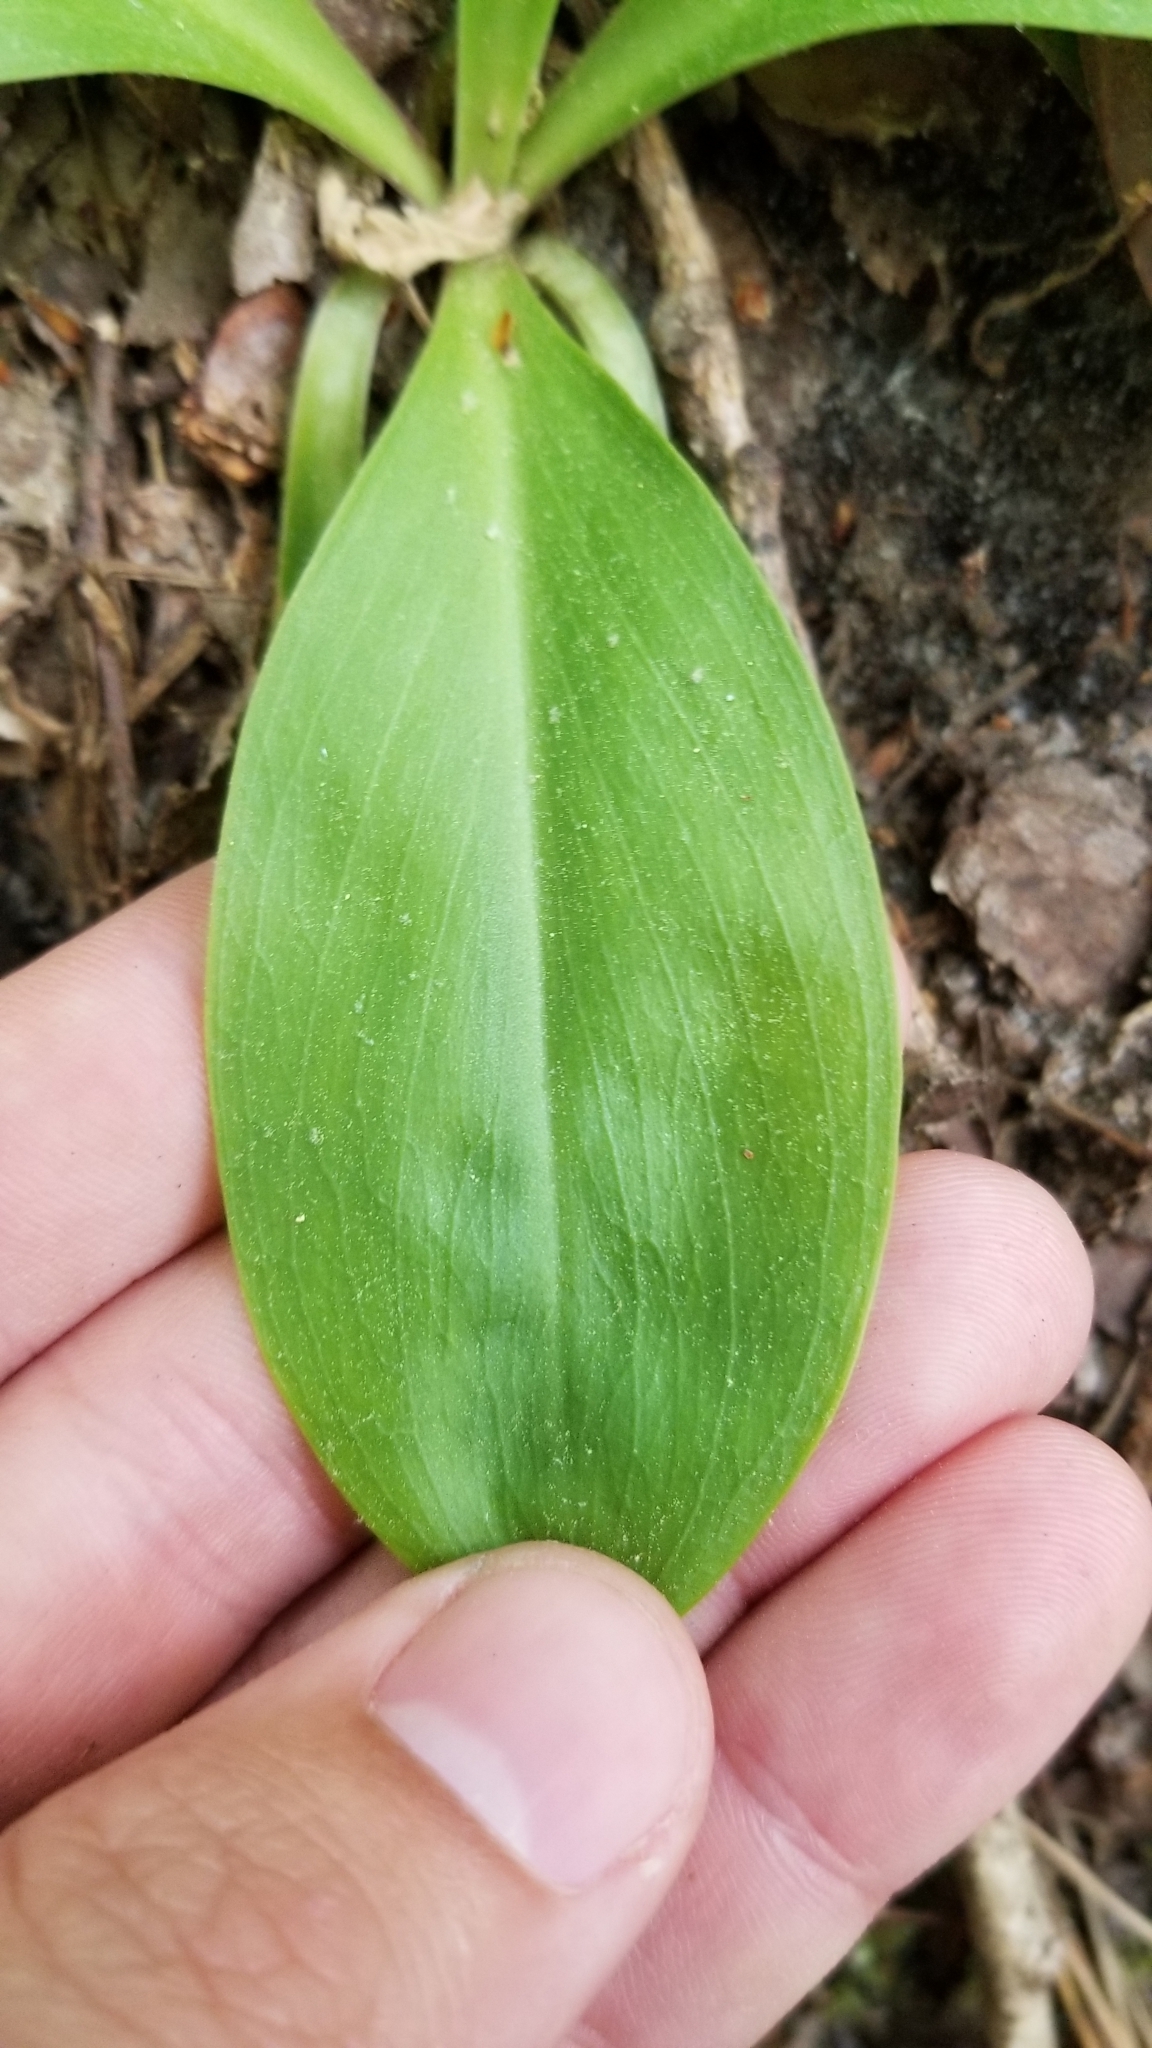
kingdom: Plantae
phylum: Tracheophyta
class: Liliopsida
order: Liliales
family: Melanthiaceae
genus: Chamaelirium
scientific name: Chamaelirium luteum
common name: Fairy-wand
